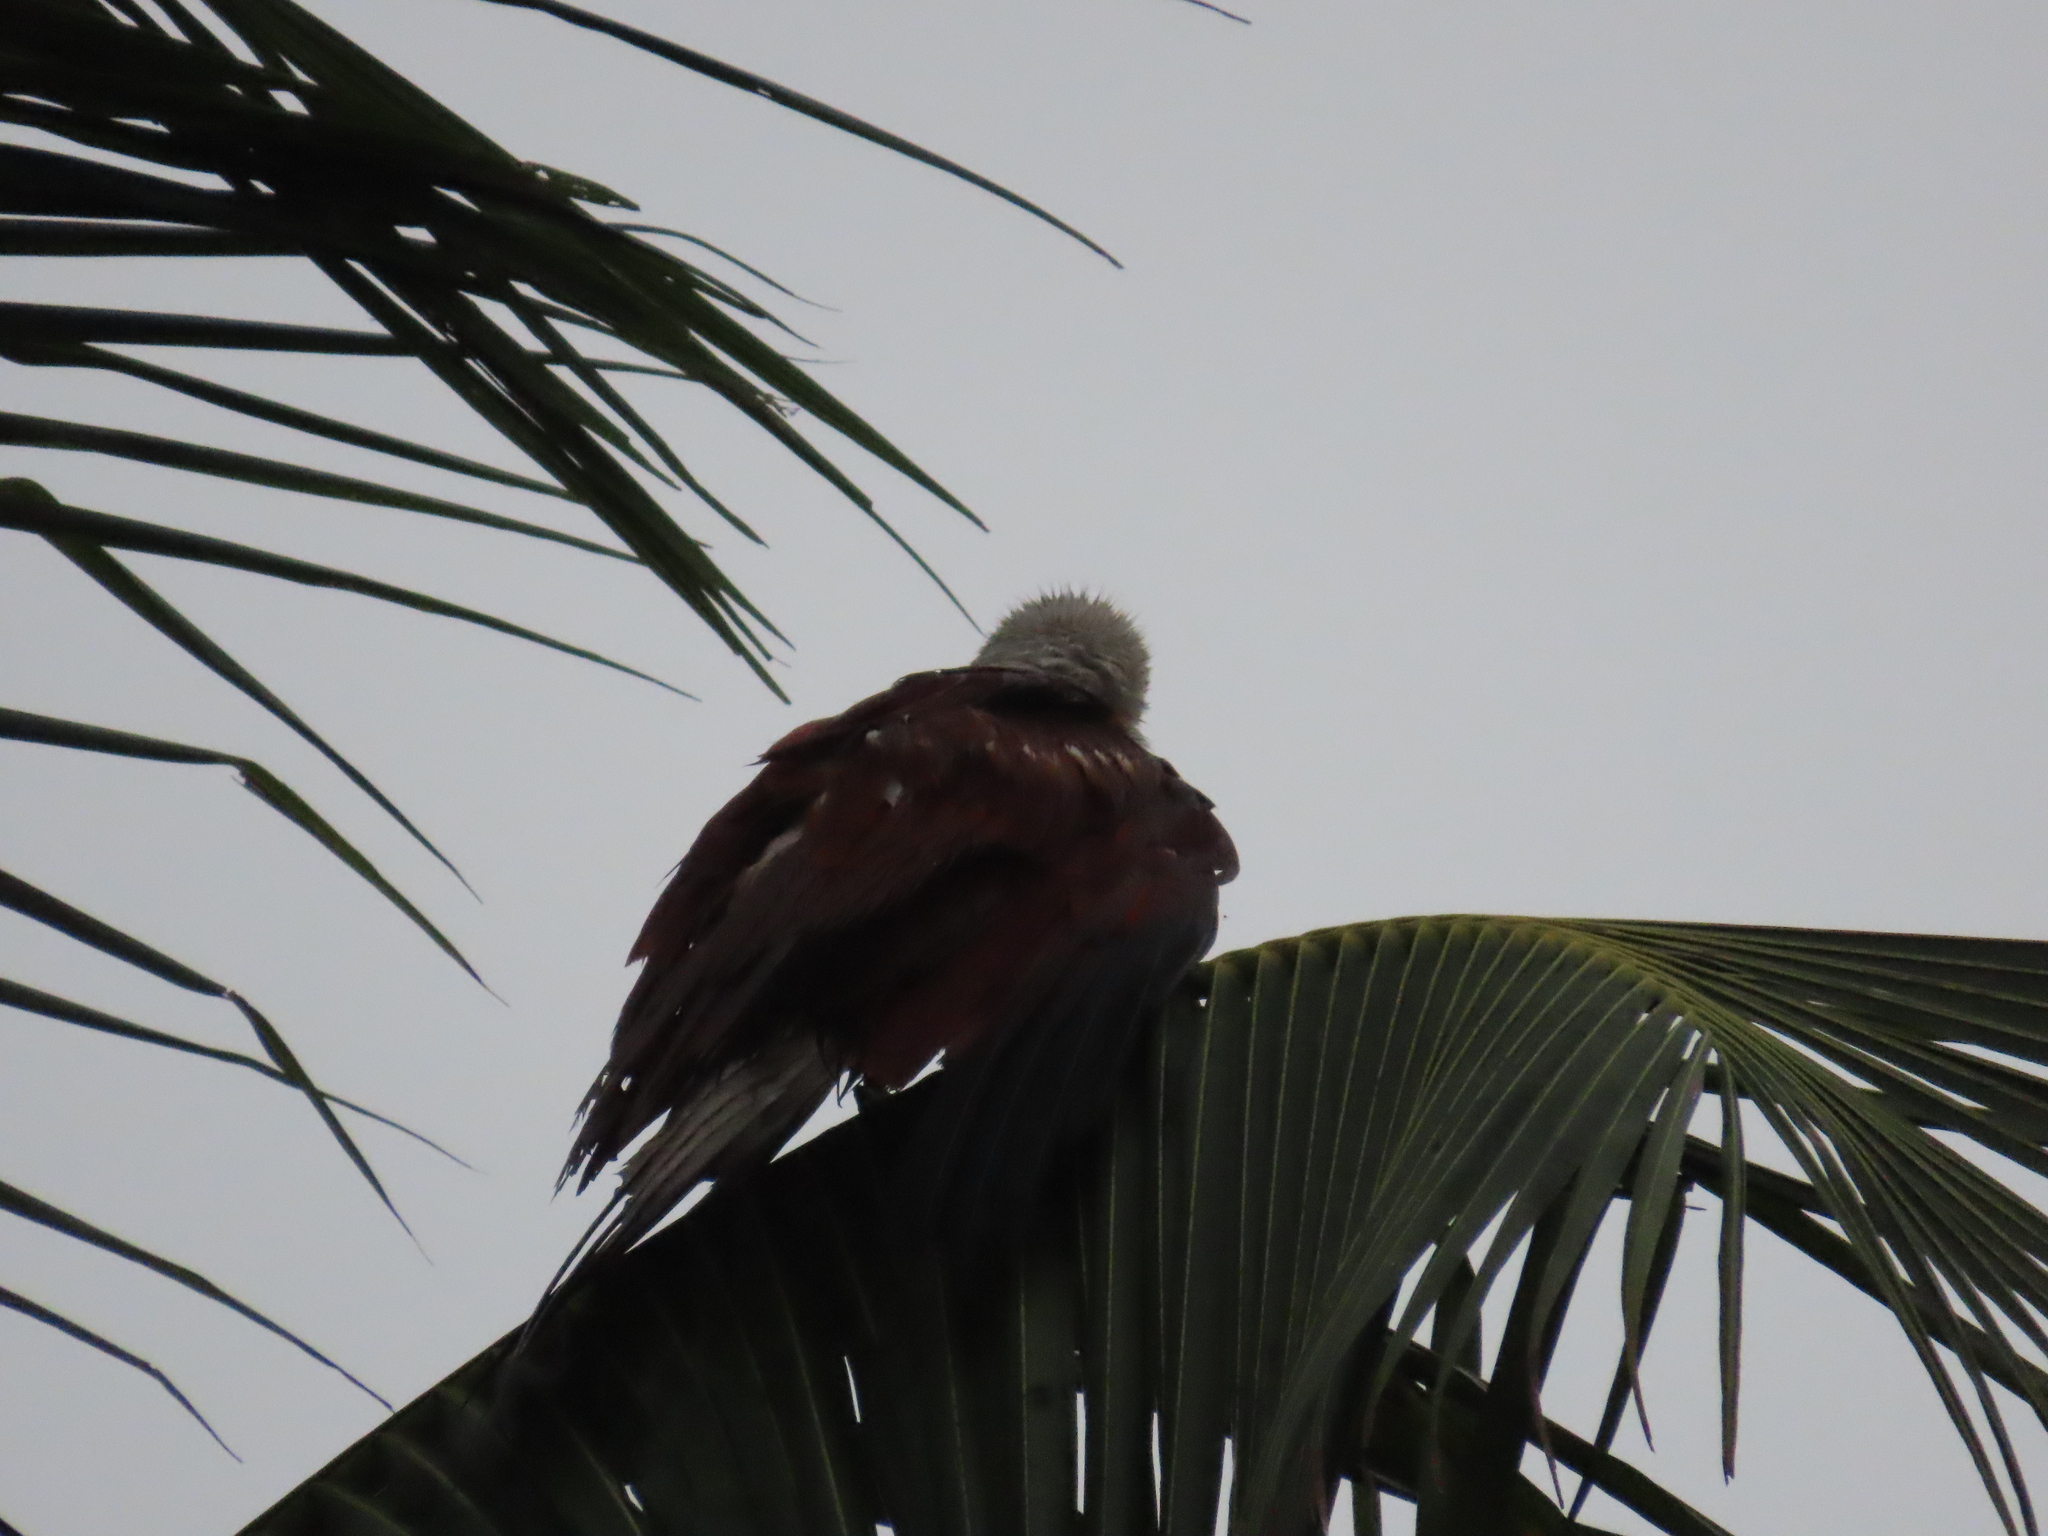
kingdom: Animalia
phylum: Chordata
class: Aves
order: Accipitriformes
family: Accipitridae
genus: Haliastur
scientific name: Haliastur indus
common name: Brahminy kite
